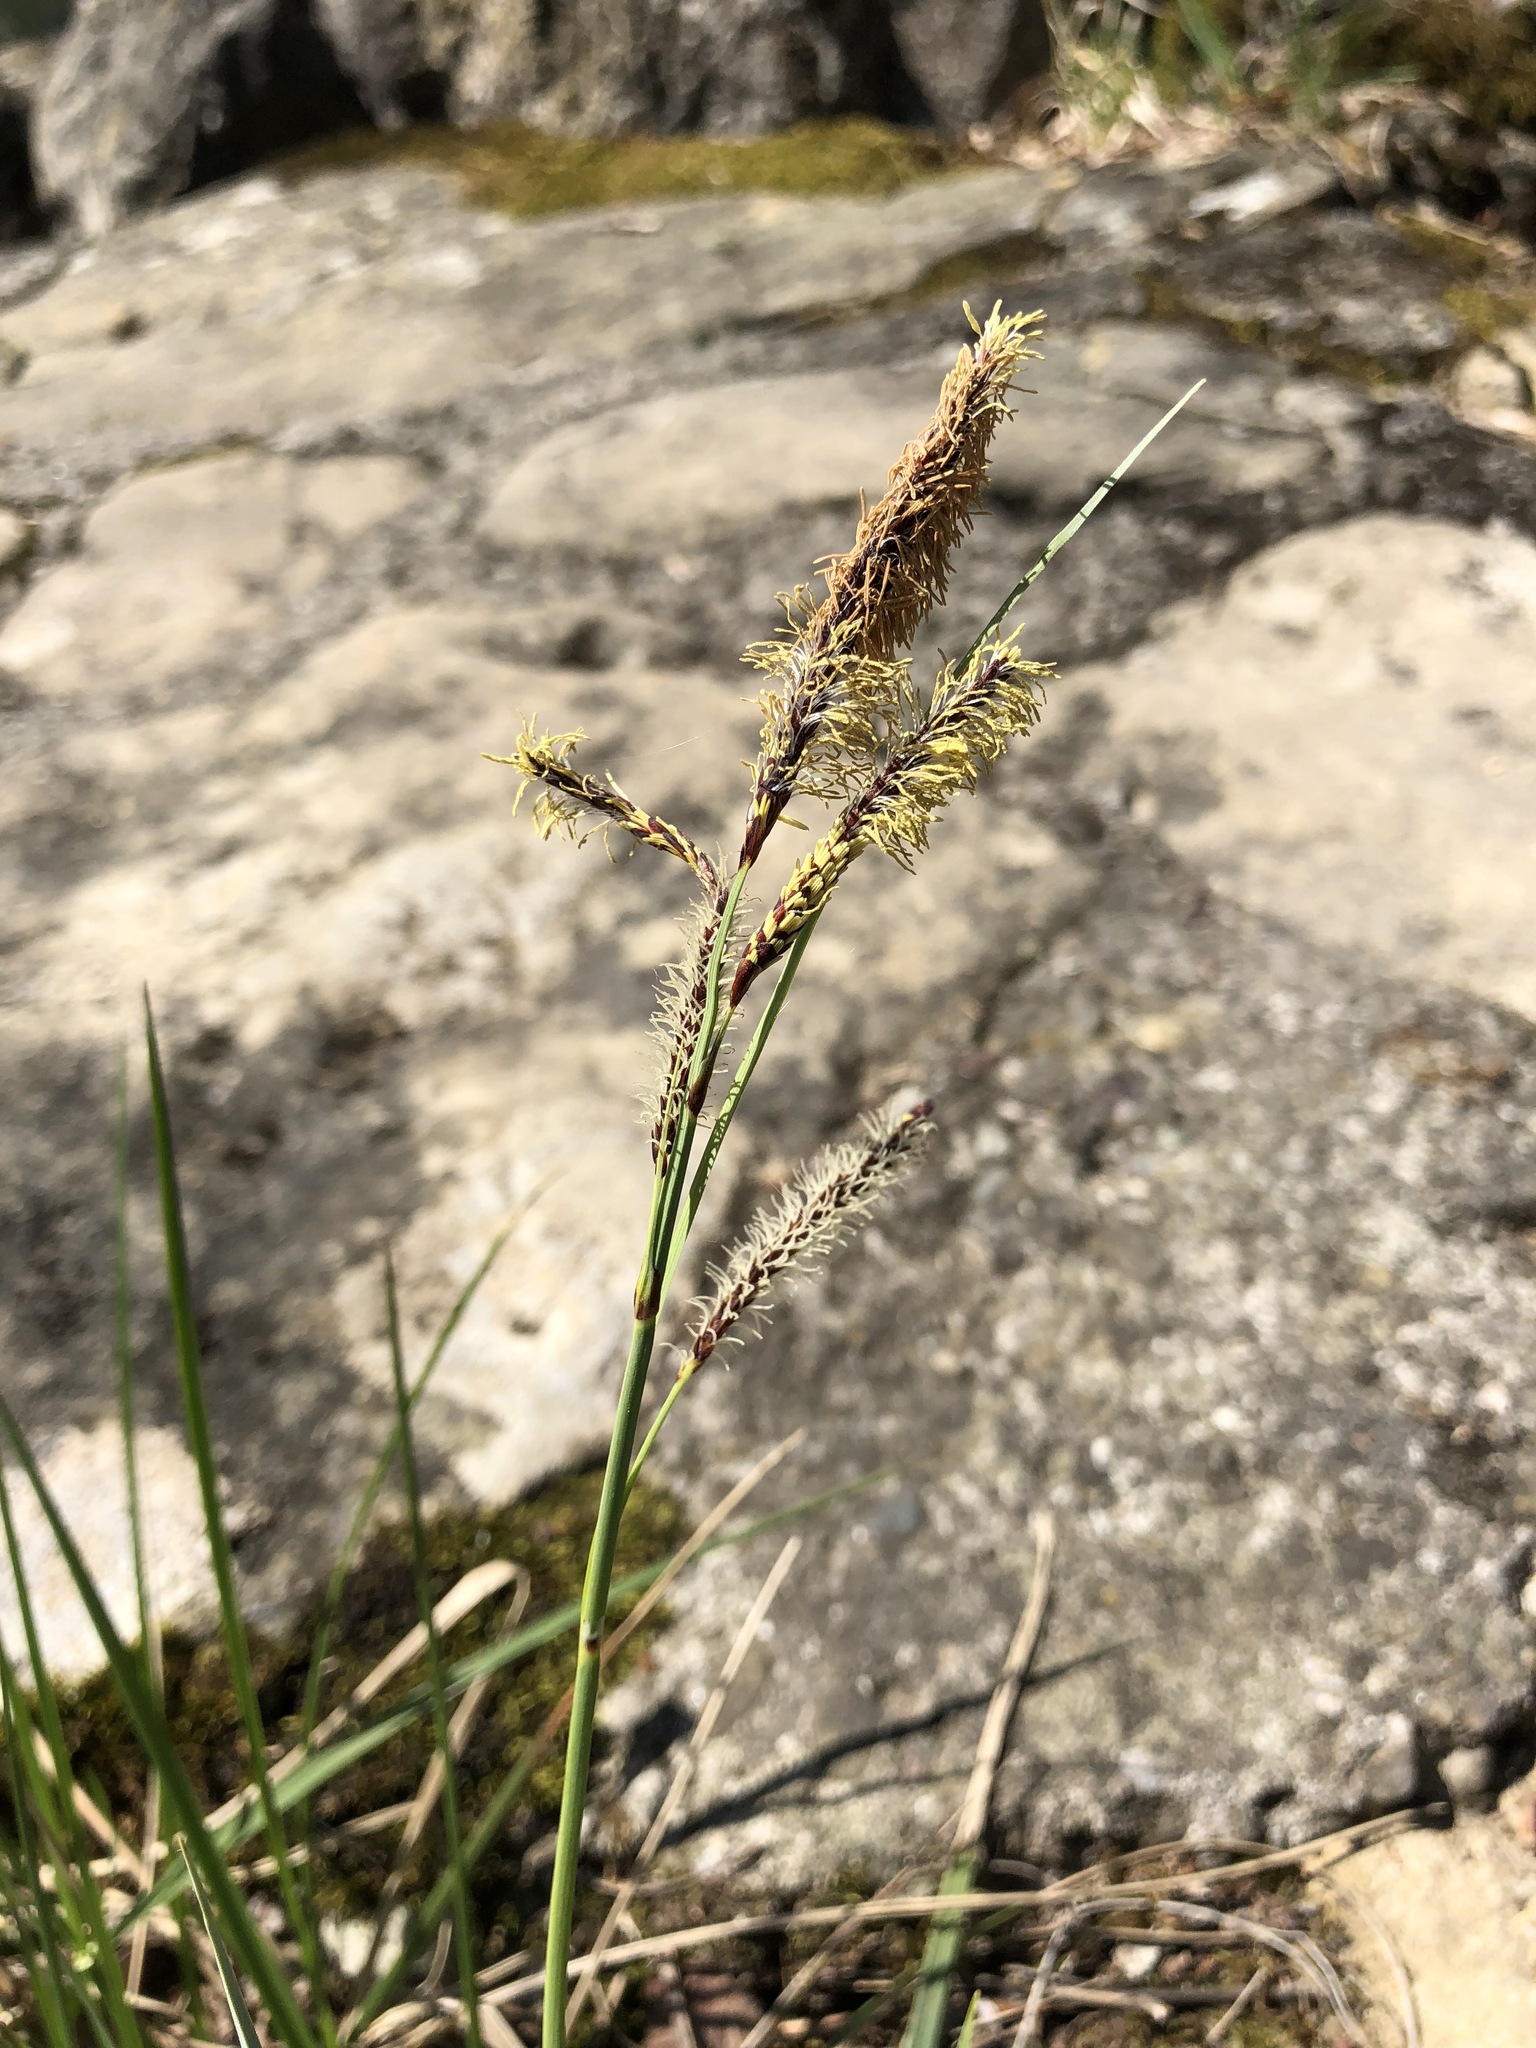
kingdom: Plantae
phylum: Tracheophyta
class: Liliopsida
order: Poales
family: Cyperaceae
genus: Carex
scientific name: Carex flacca
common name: Glaucous sedge
